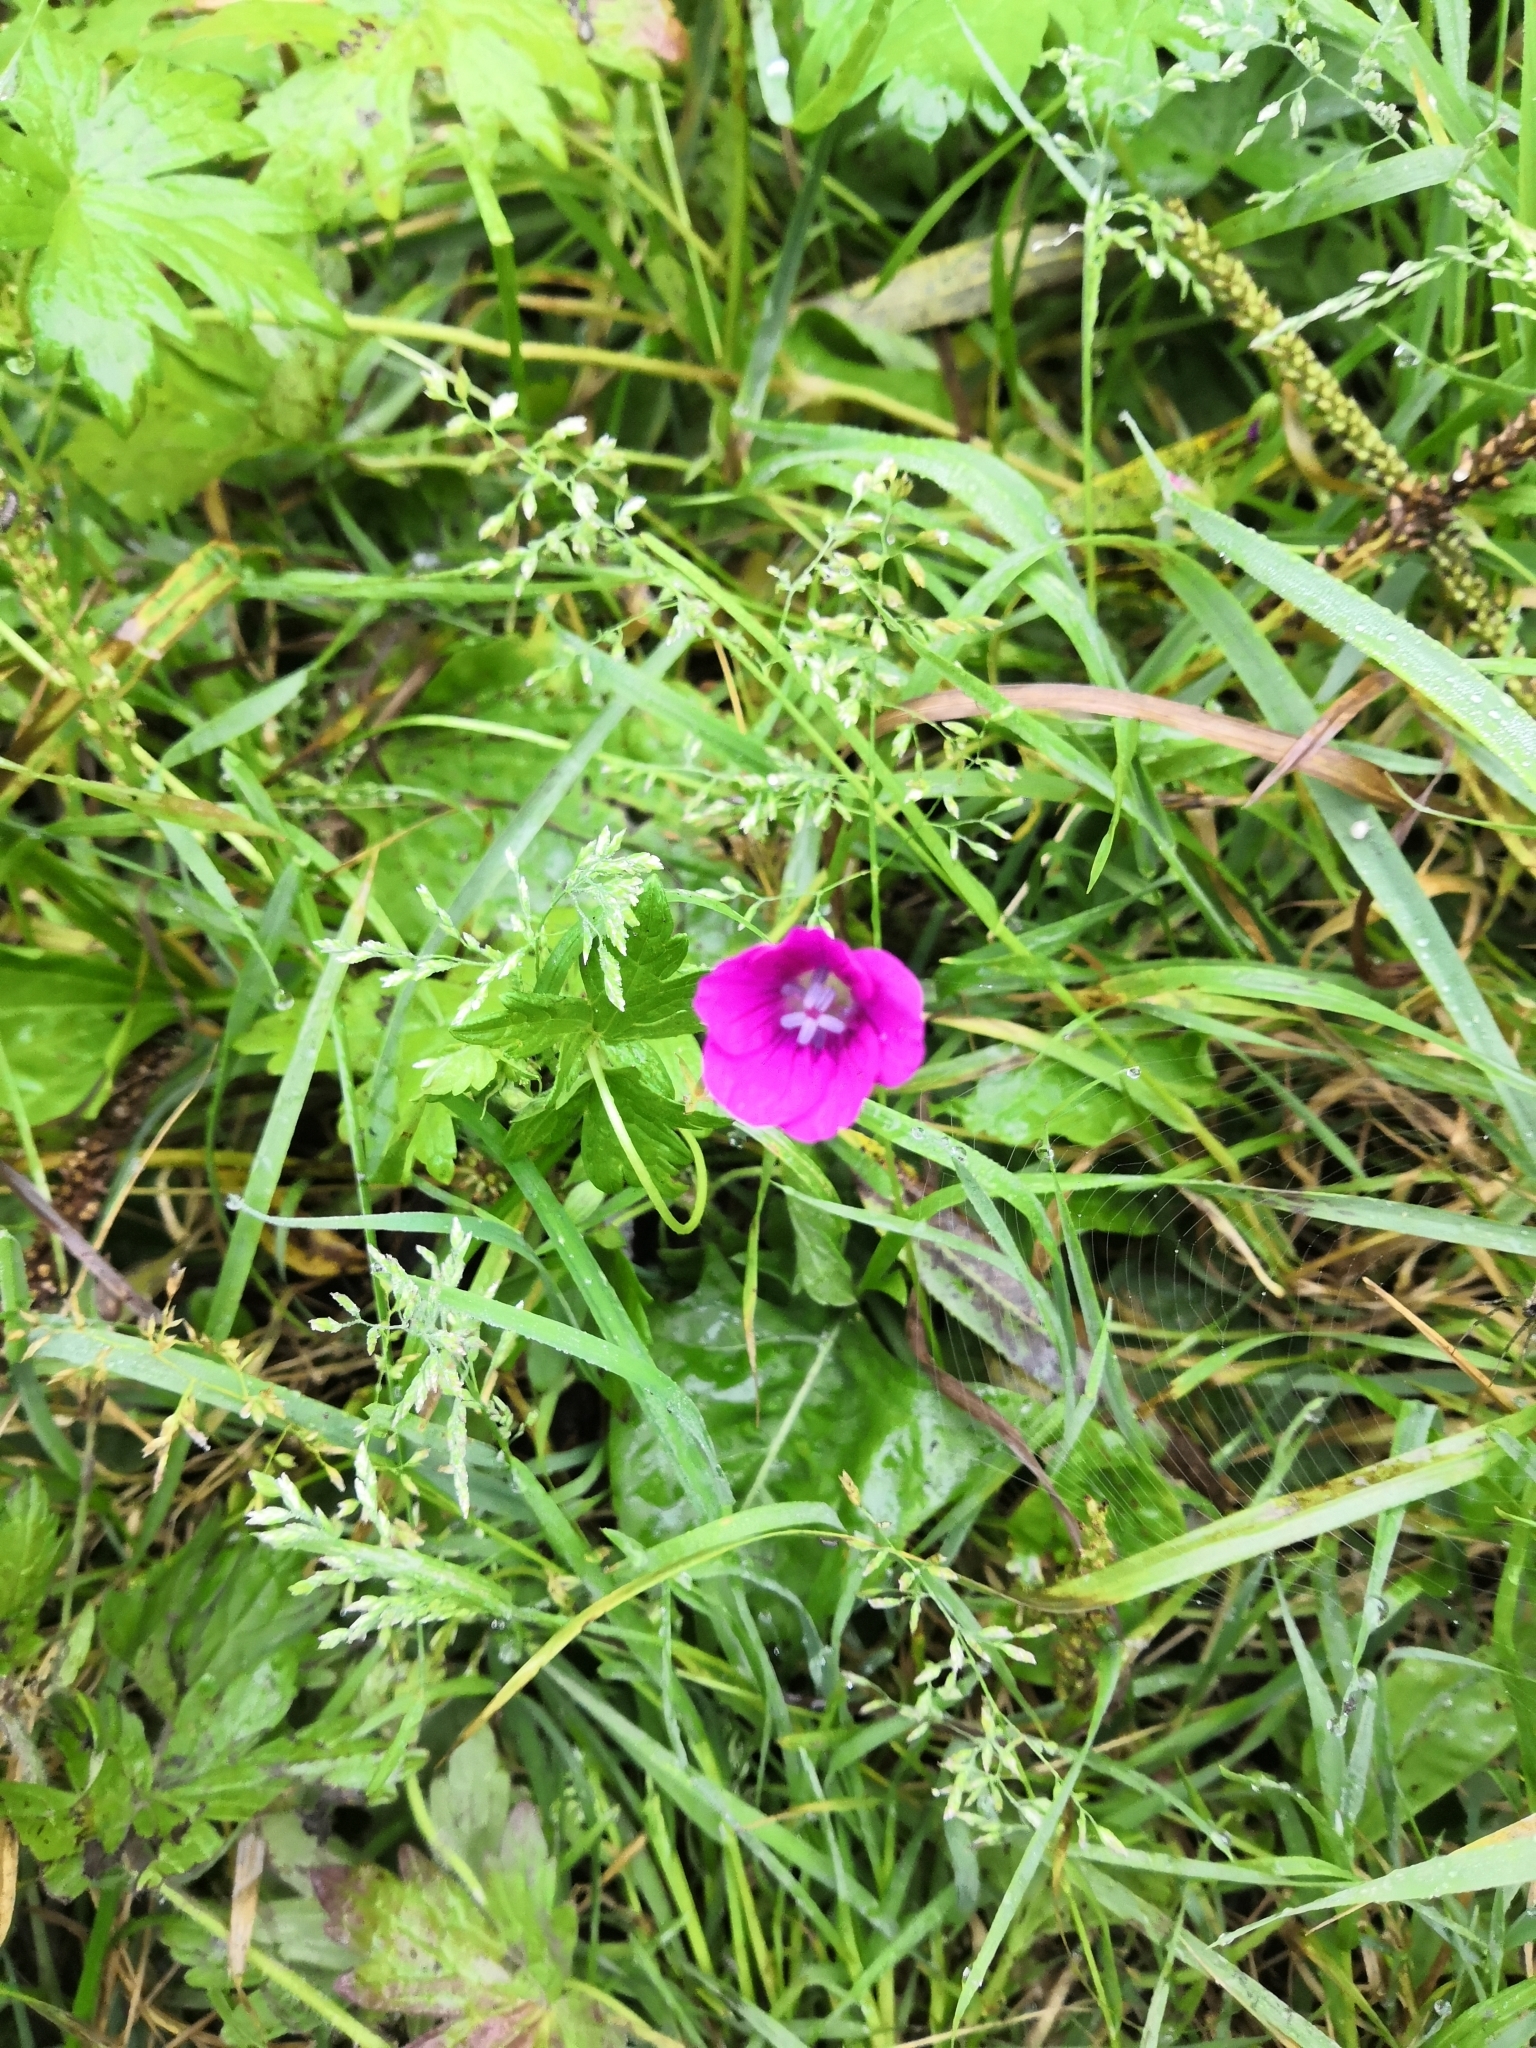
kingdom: Plantae
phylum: Tracheophyta
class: Magnoliopsida
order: Geraniales
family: Geraniaceae
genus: Geranium
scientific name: Geranium palustre
